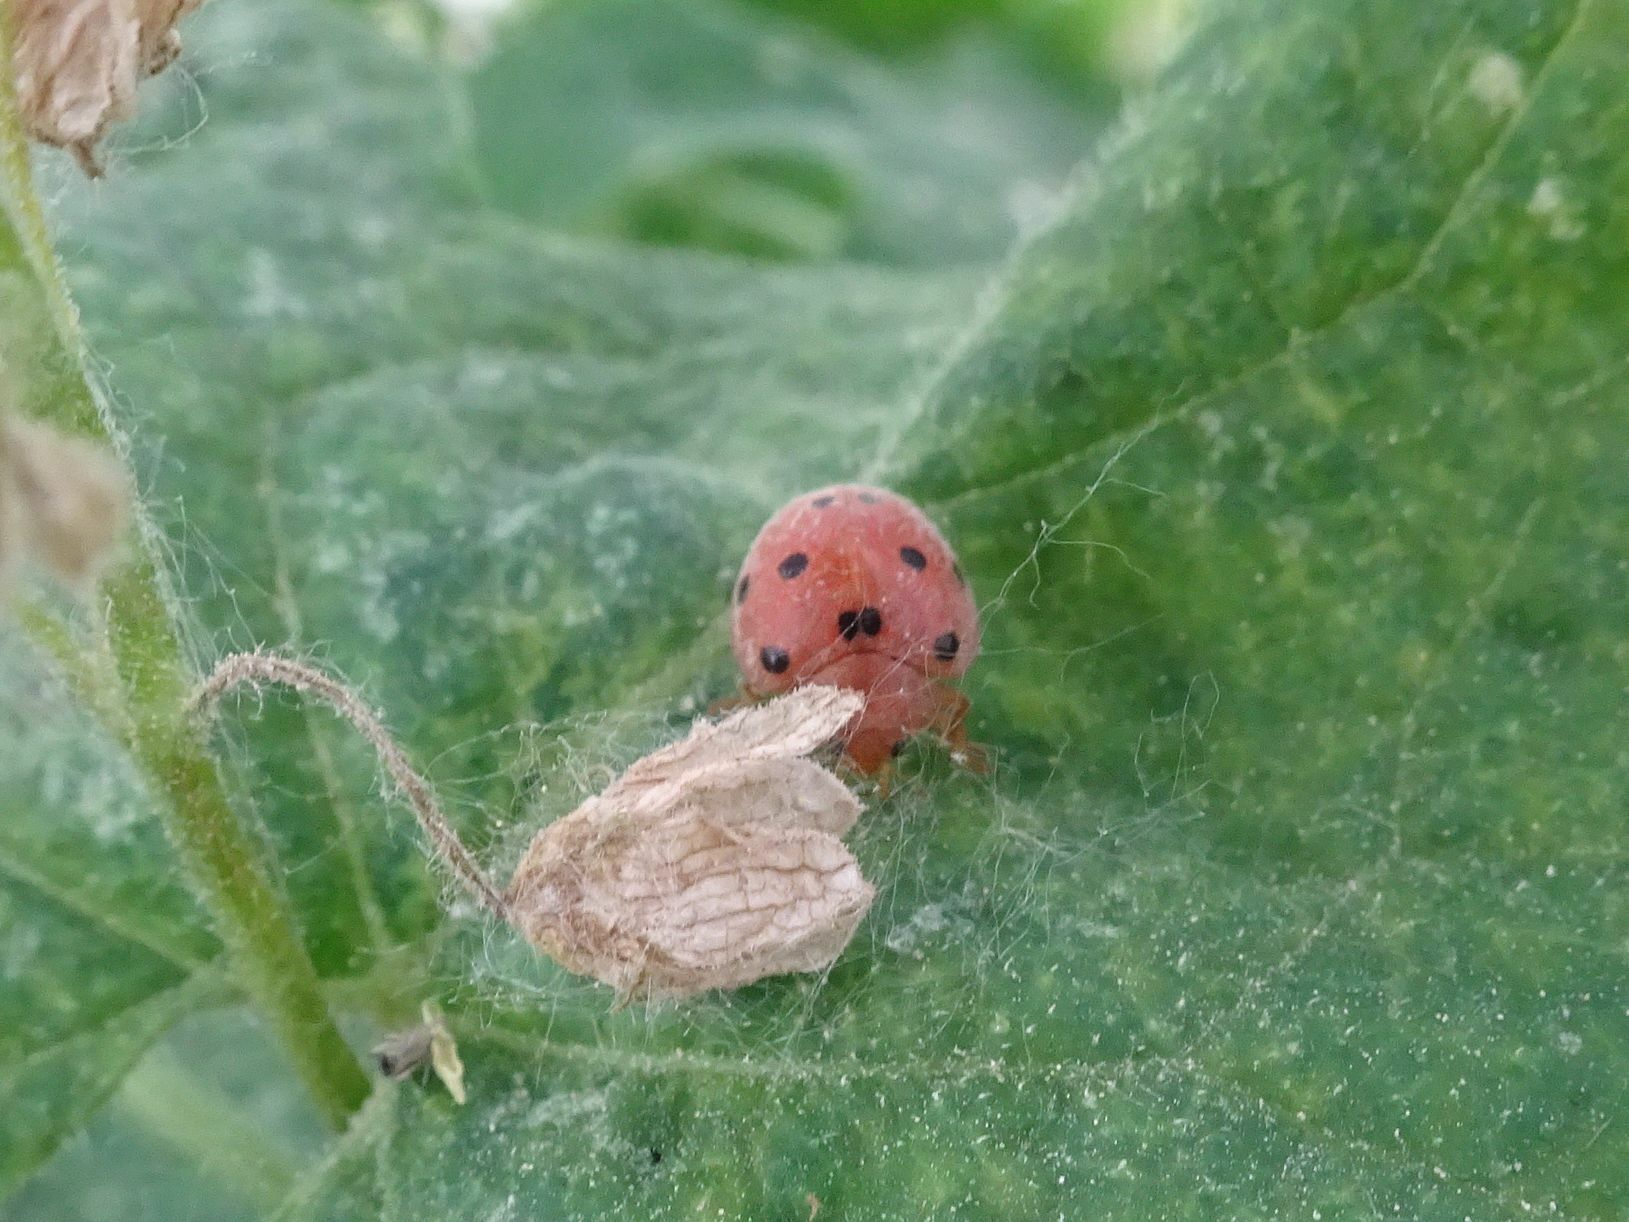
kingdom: Animalia
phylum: Arthropoda
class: Insecta
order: Coleoptera
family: Coccinellidae
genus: Henosepilachna
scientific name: Henosepilachna argus
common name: Bryony ladybird
